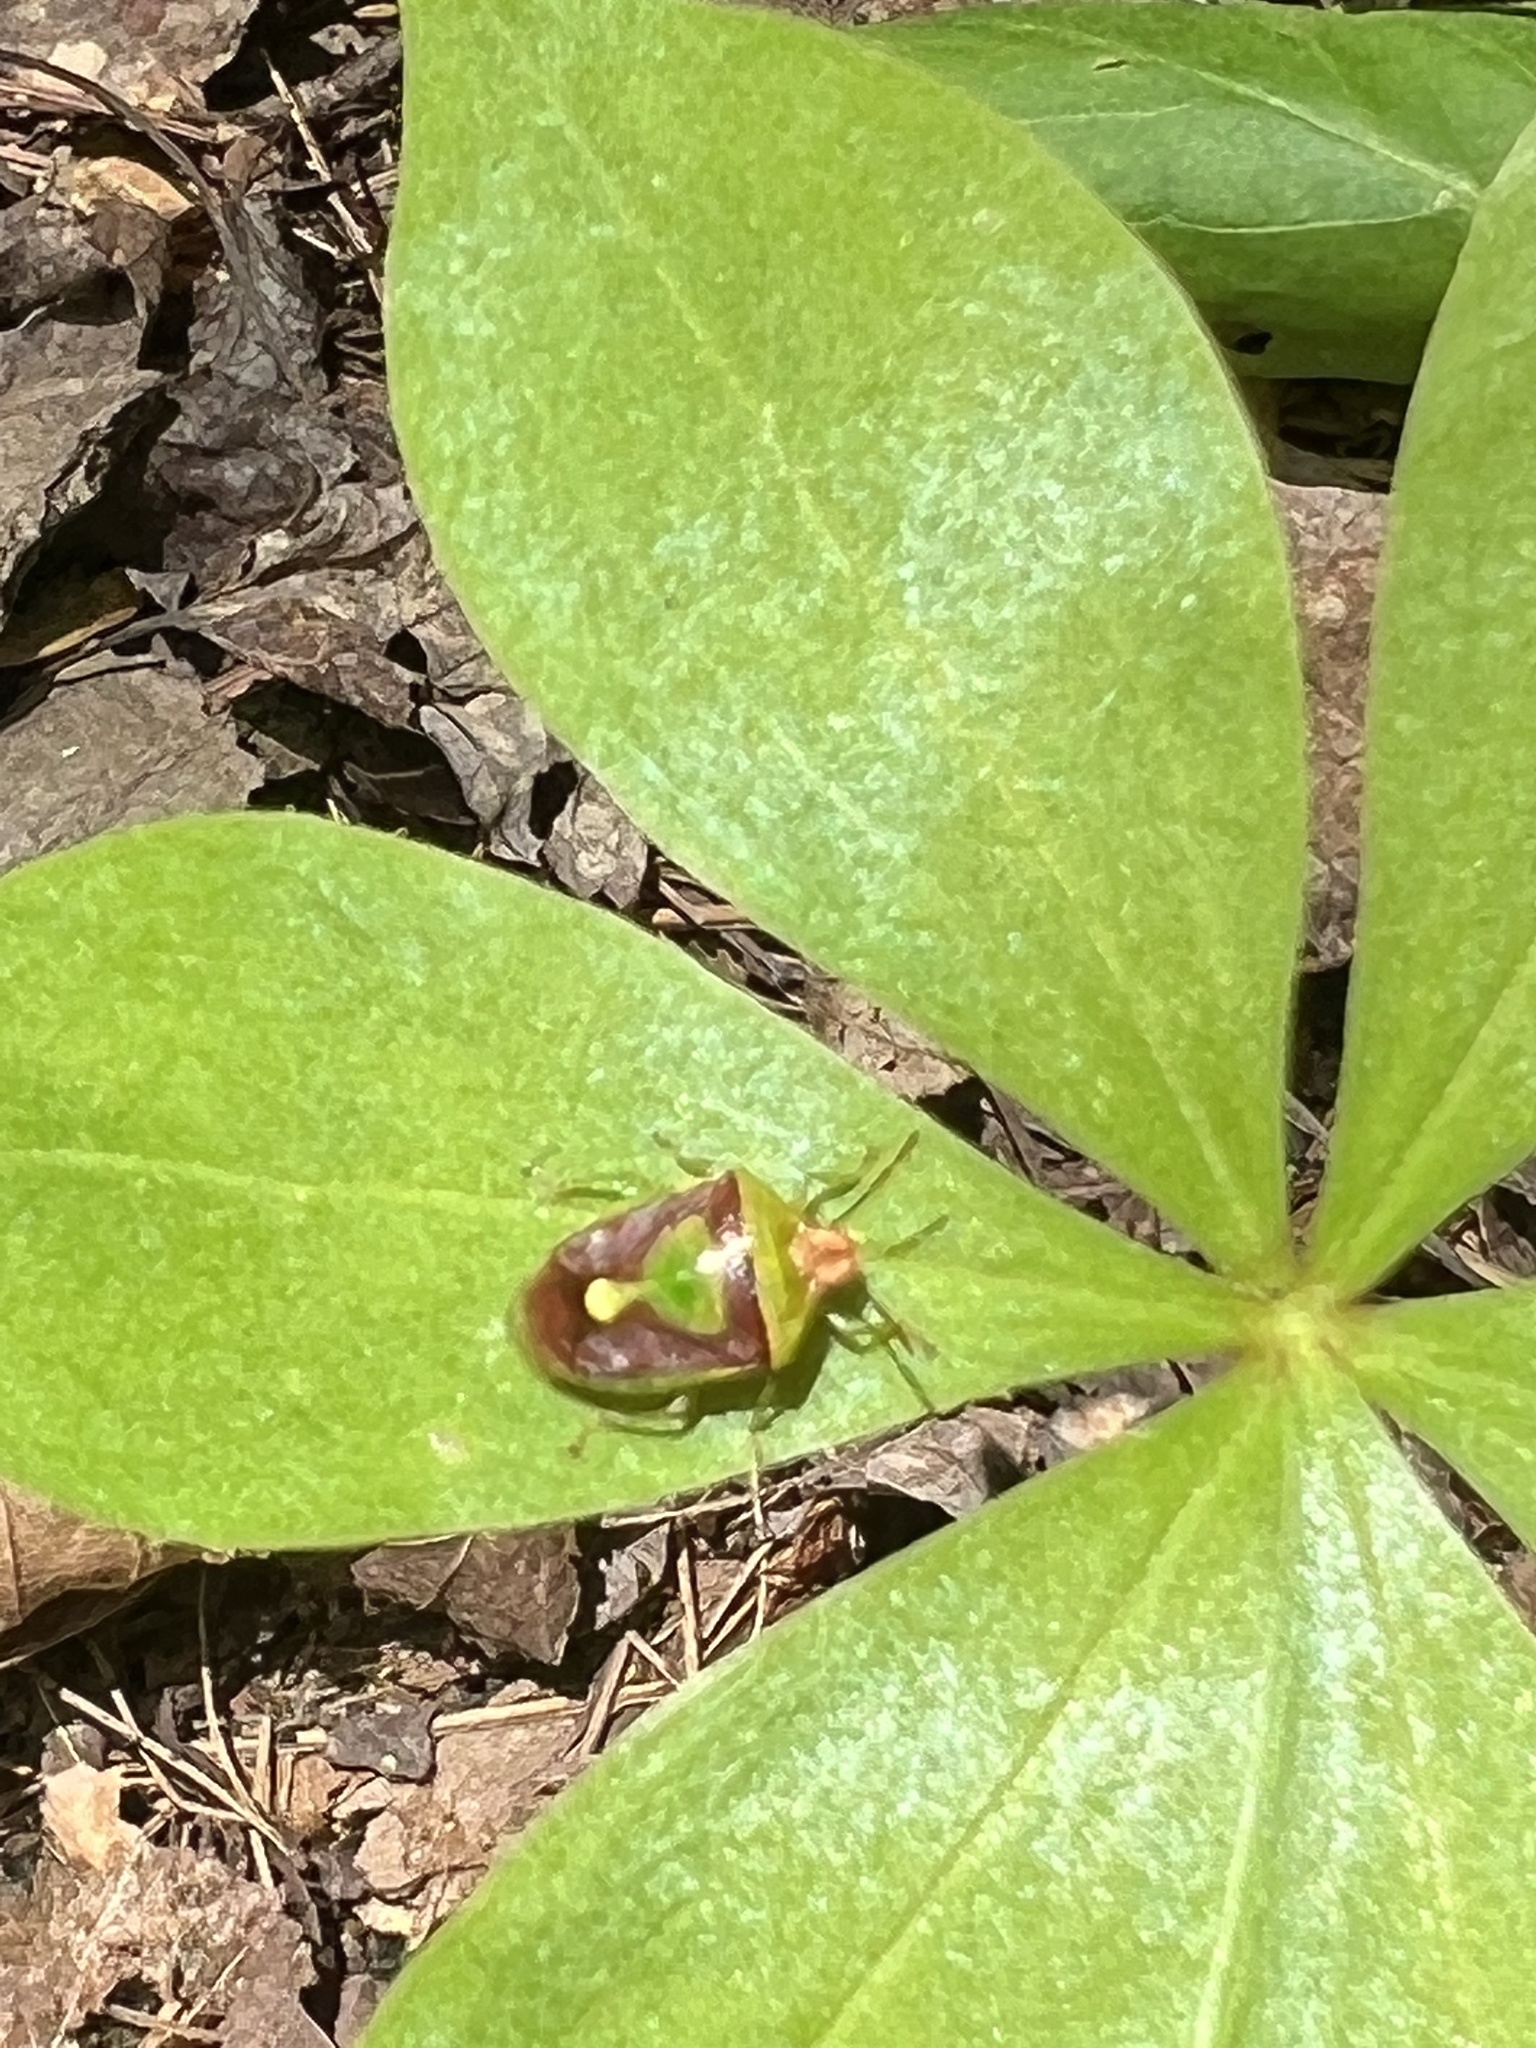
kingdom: Animalia
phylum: Arthropoda
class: Insecta
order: Hemiptera
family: Pentatomidae
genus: Banasa
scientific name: Banasa dimidiata
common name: Green burgundy stink bug
